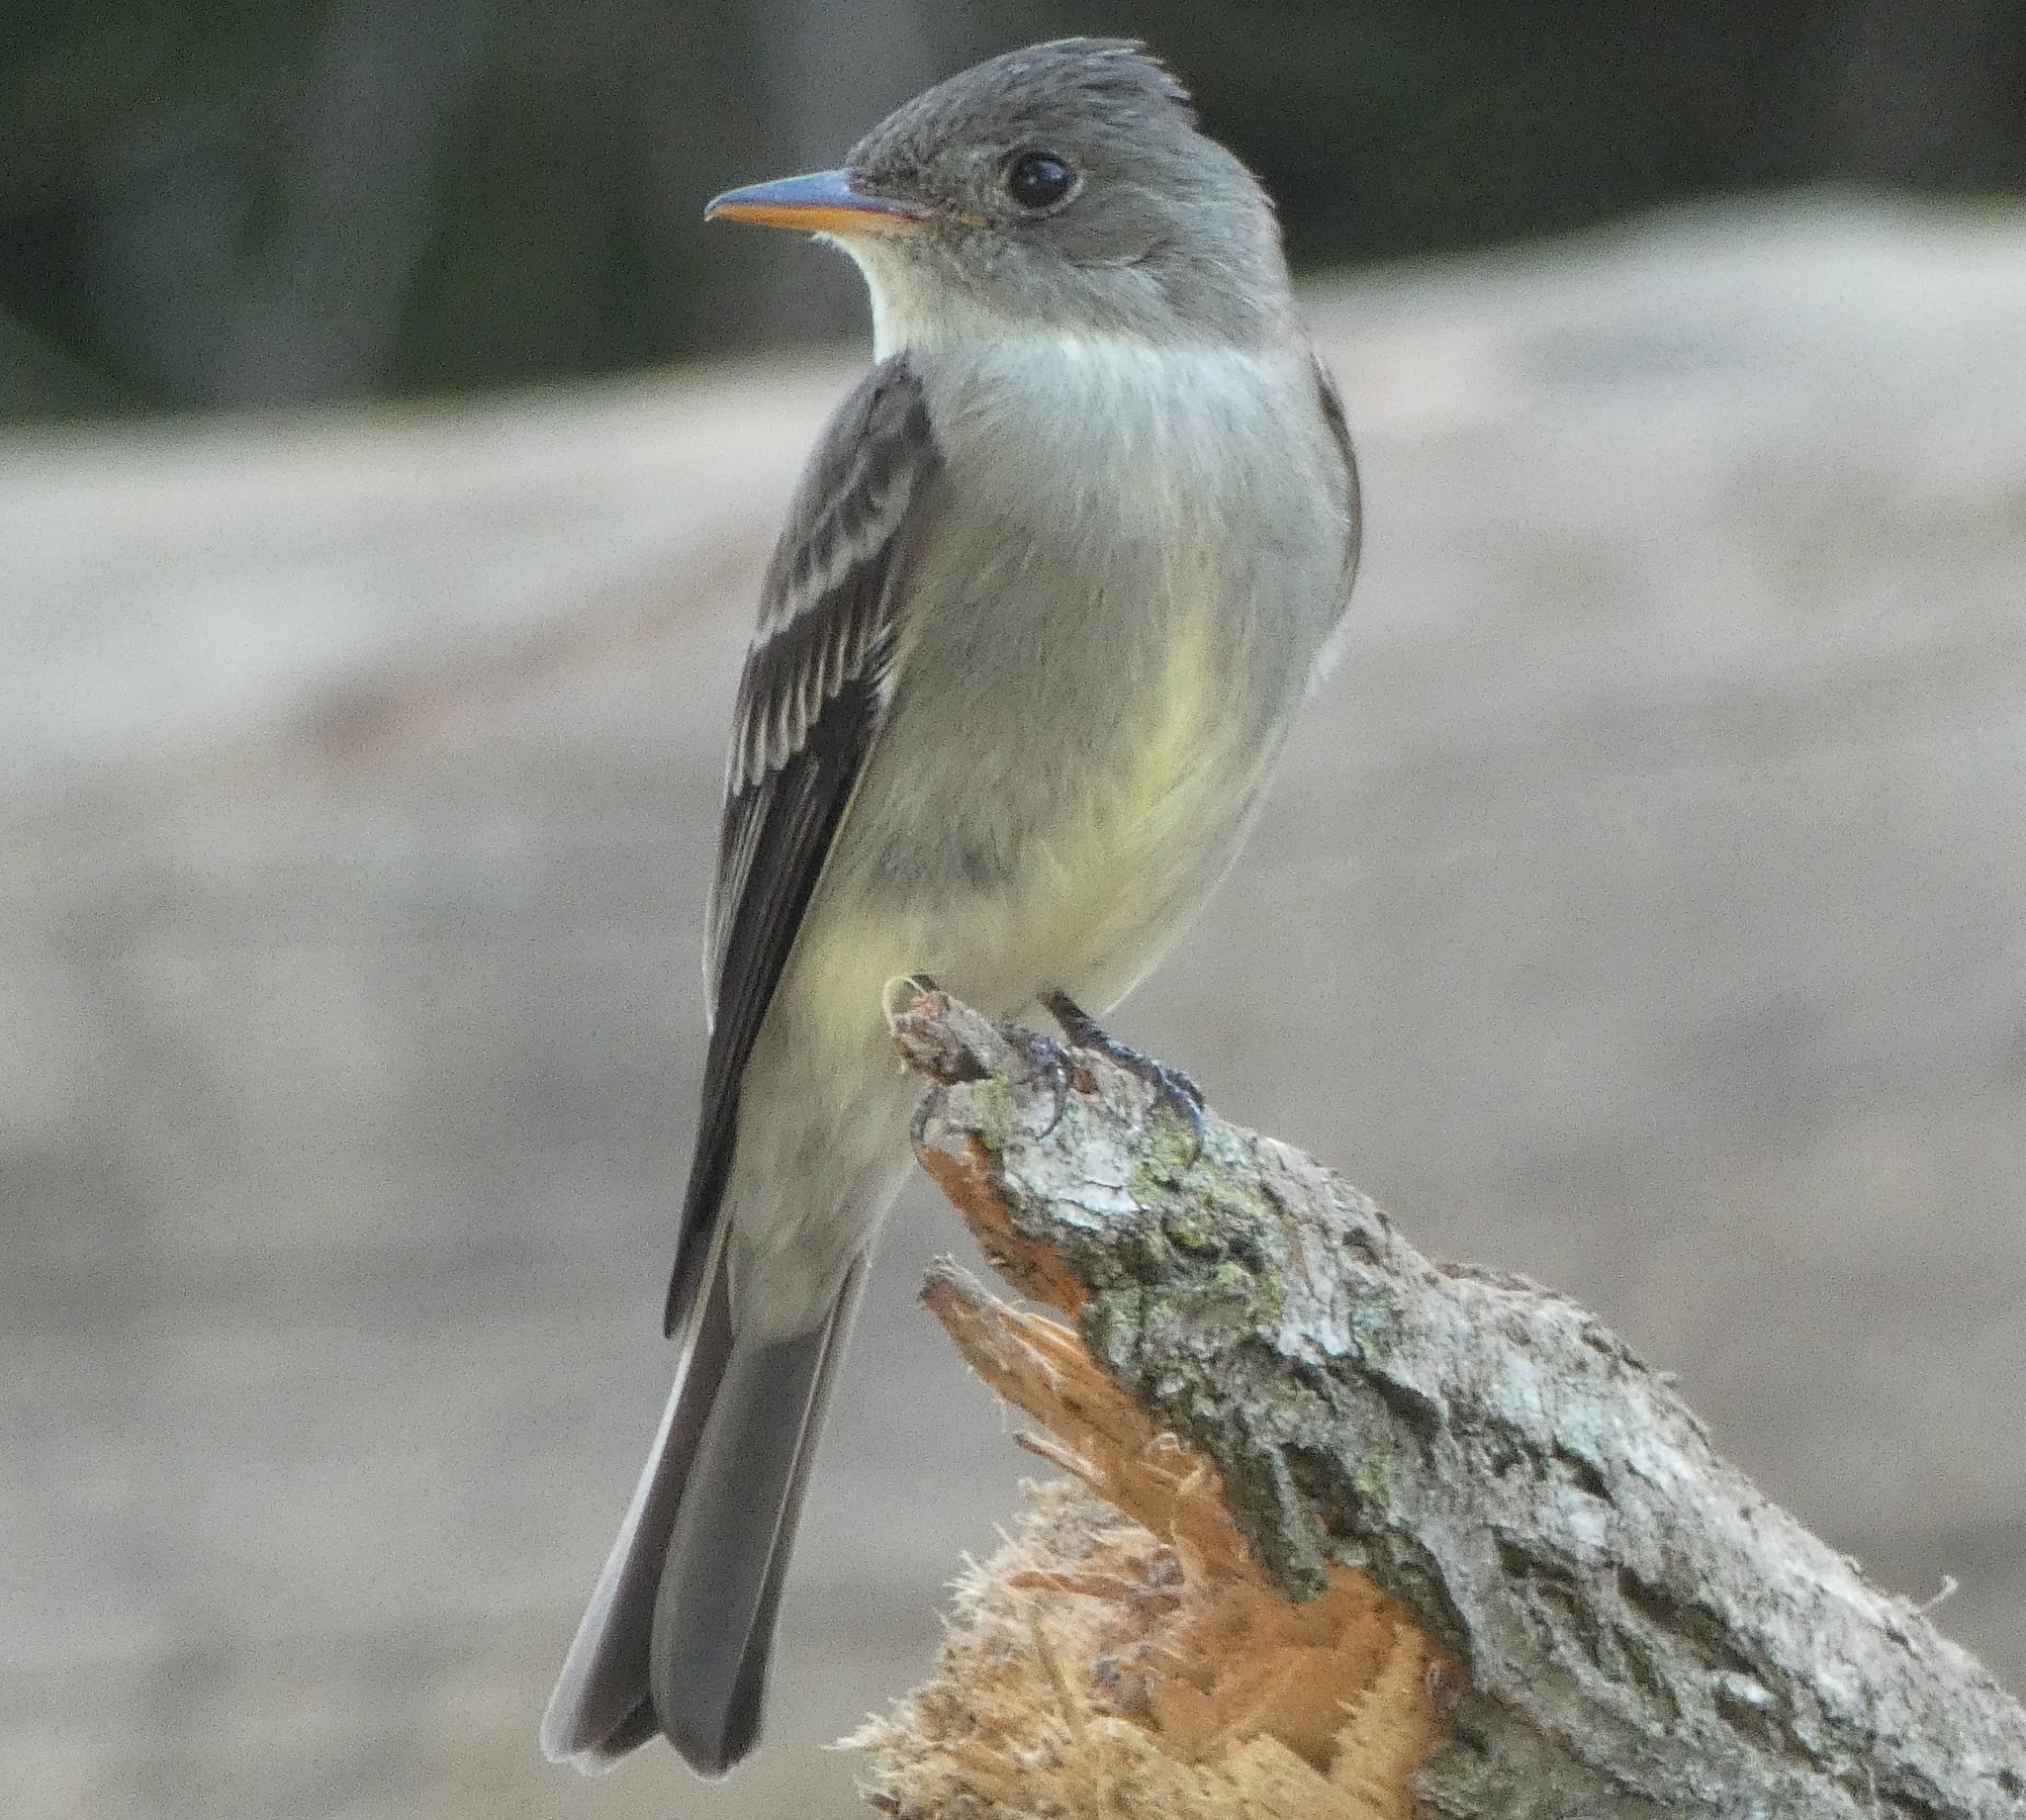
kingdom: Animalia
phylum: Chordata
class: Aves
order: Passeriformes
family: Tyrannidae
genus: Contopus
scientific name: Contopus virens
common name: Eastern wood-pewee
